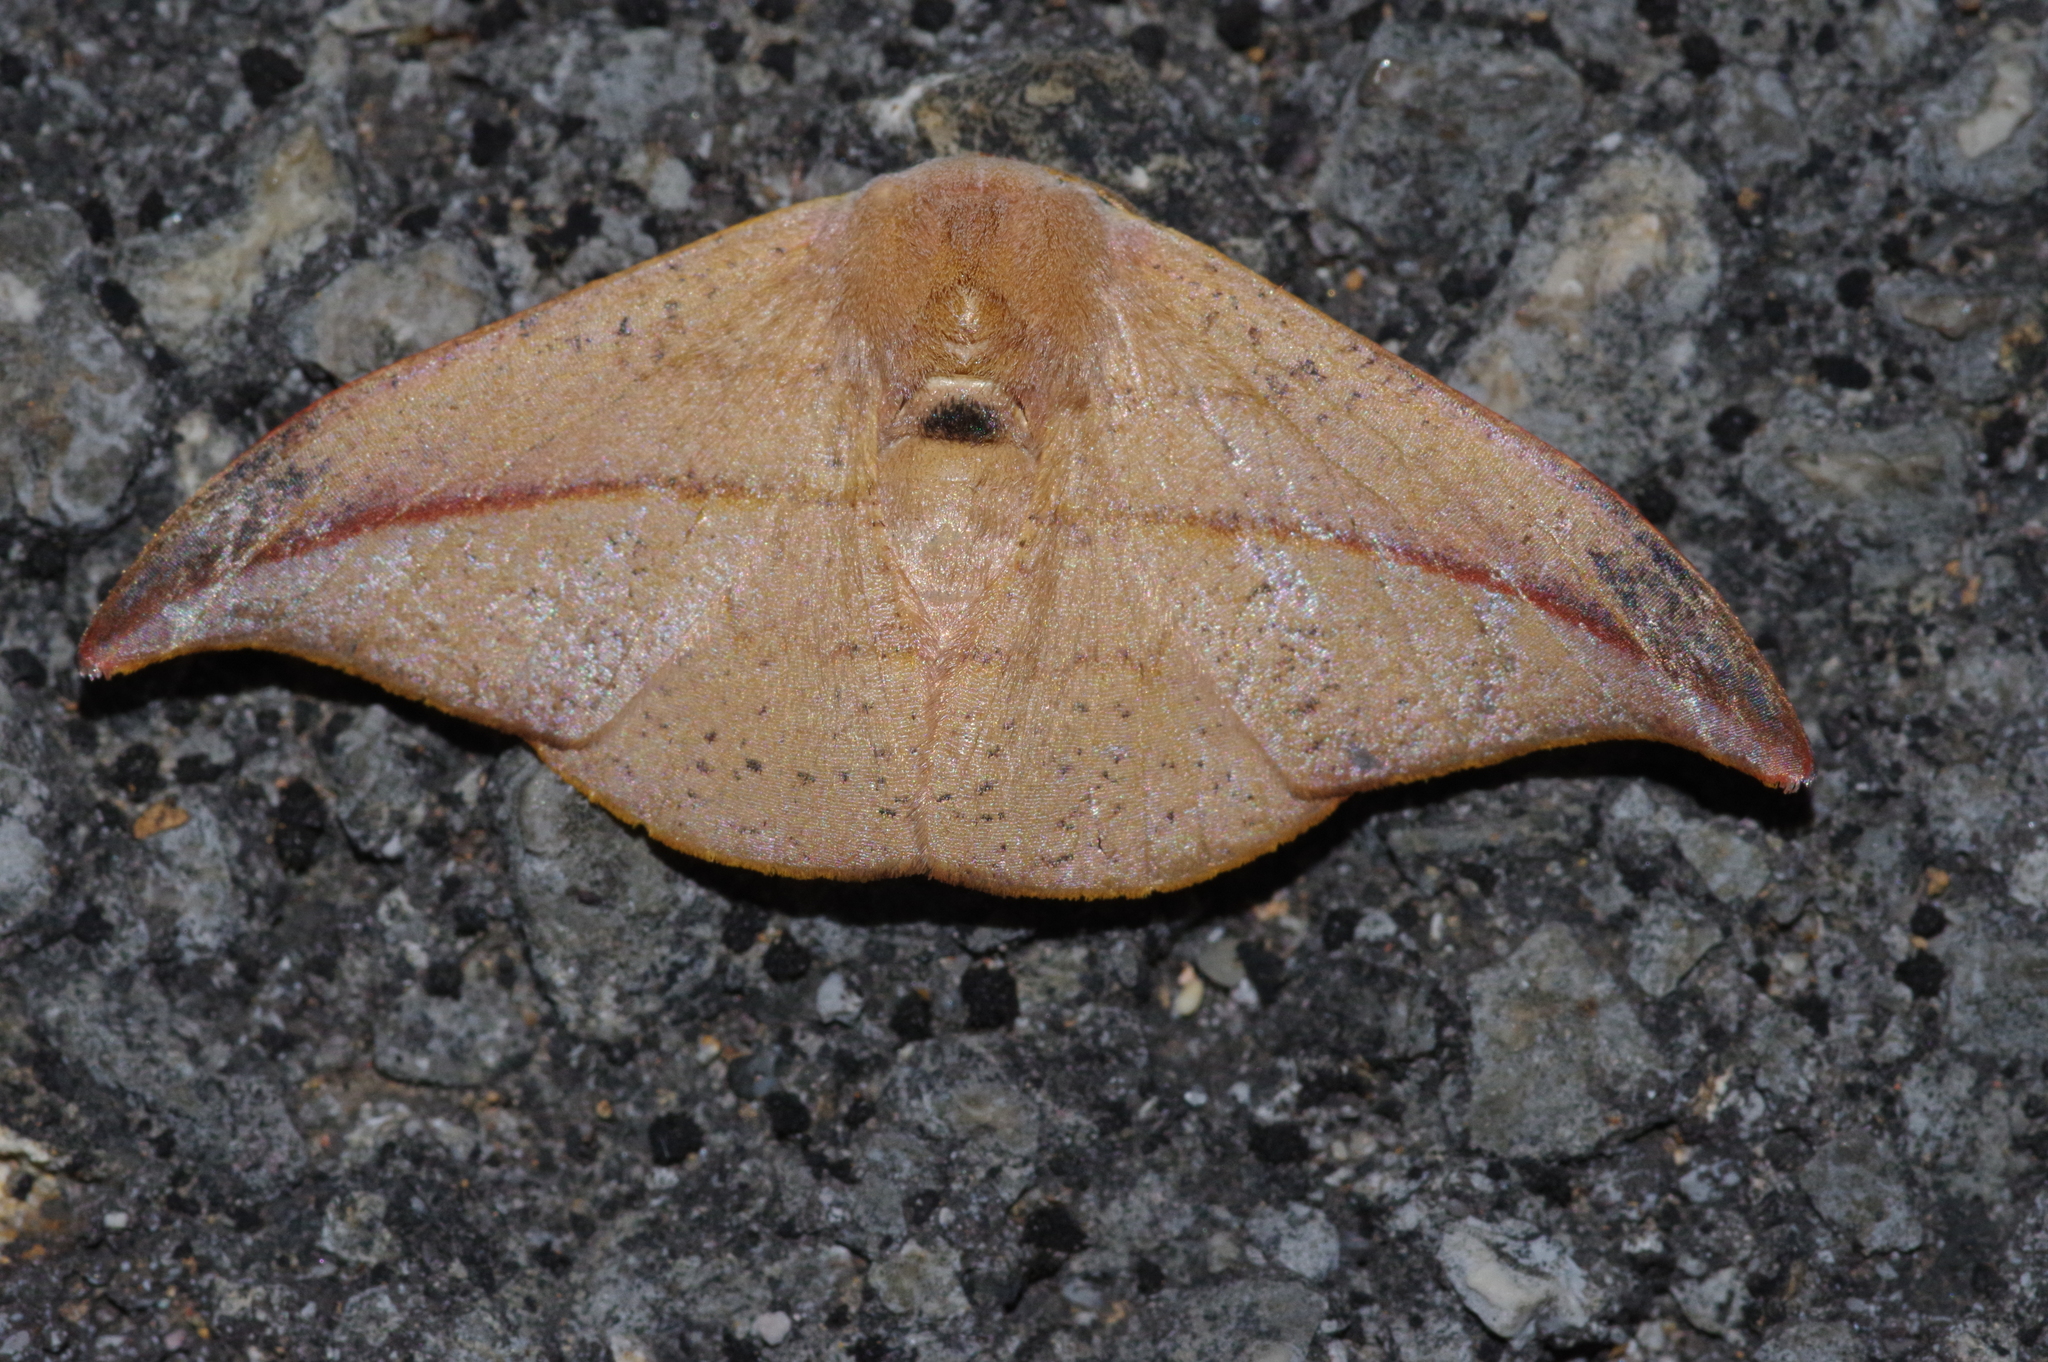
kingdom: Animalia
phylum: Arthropoda
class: Insecta
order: Lepidoptera
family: Drepanidae
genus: Oreta
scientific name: Oreta insignis
